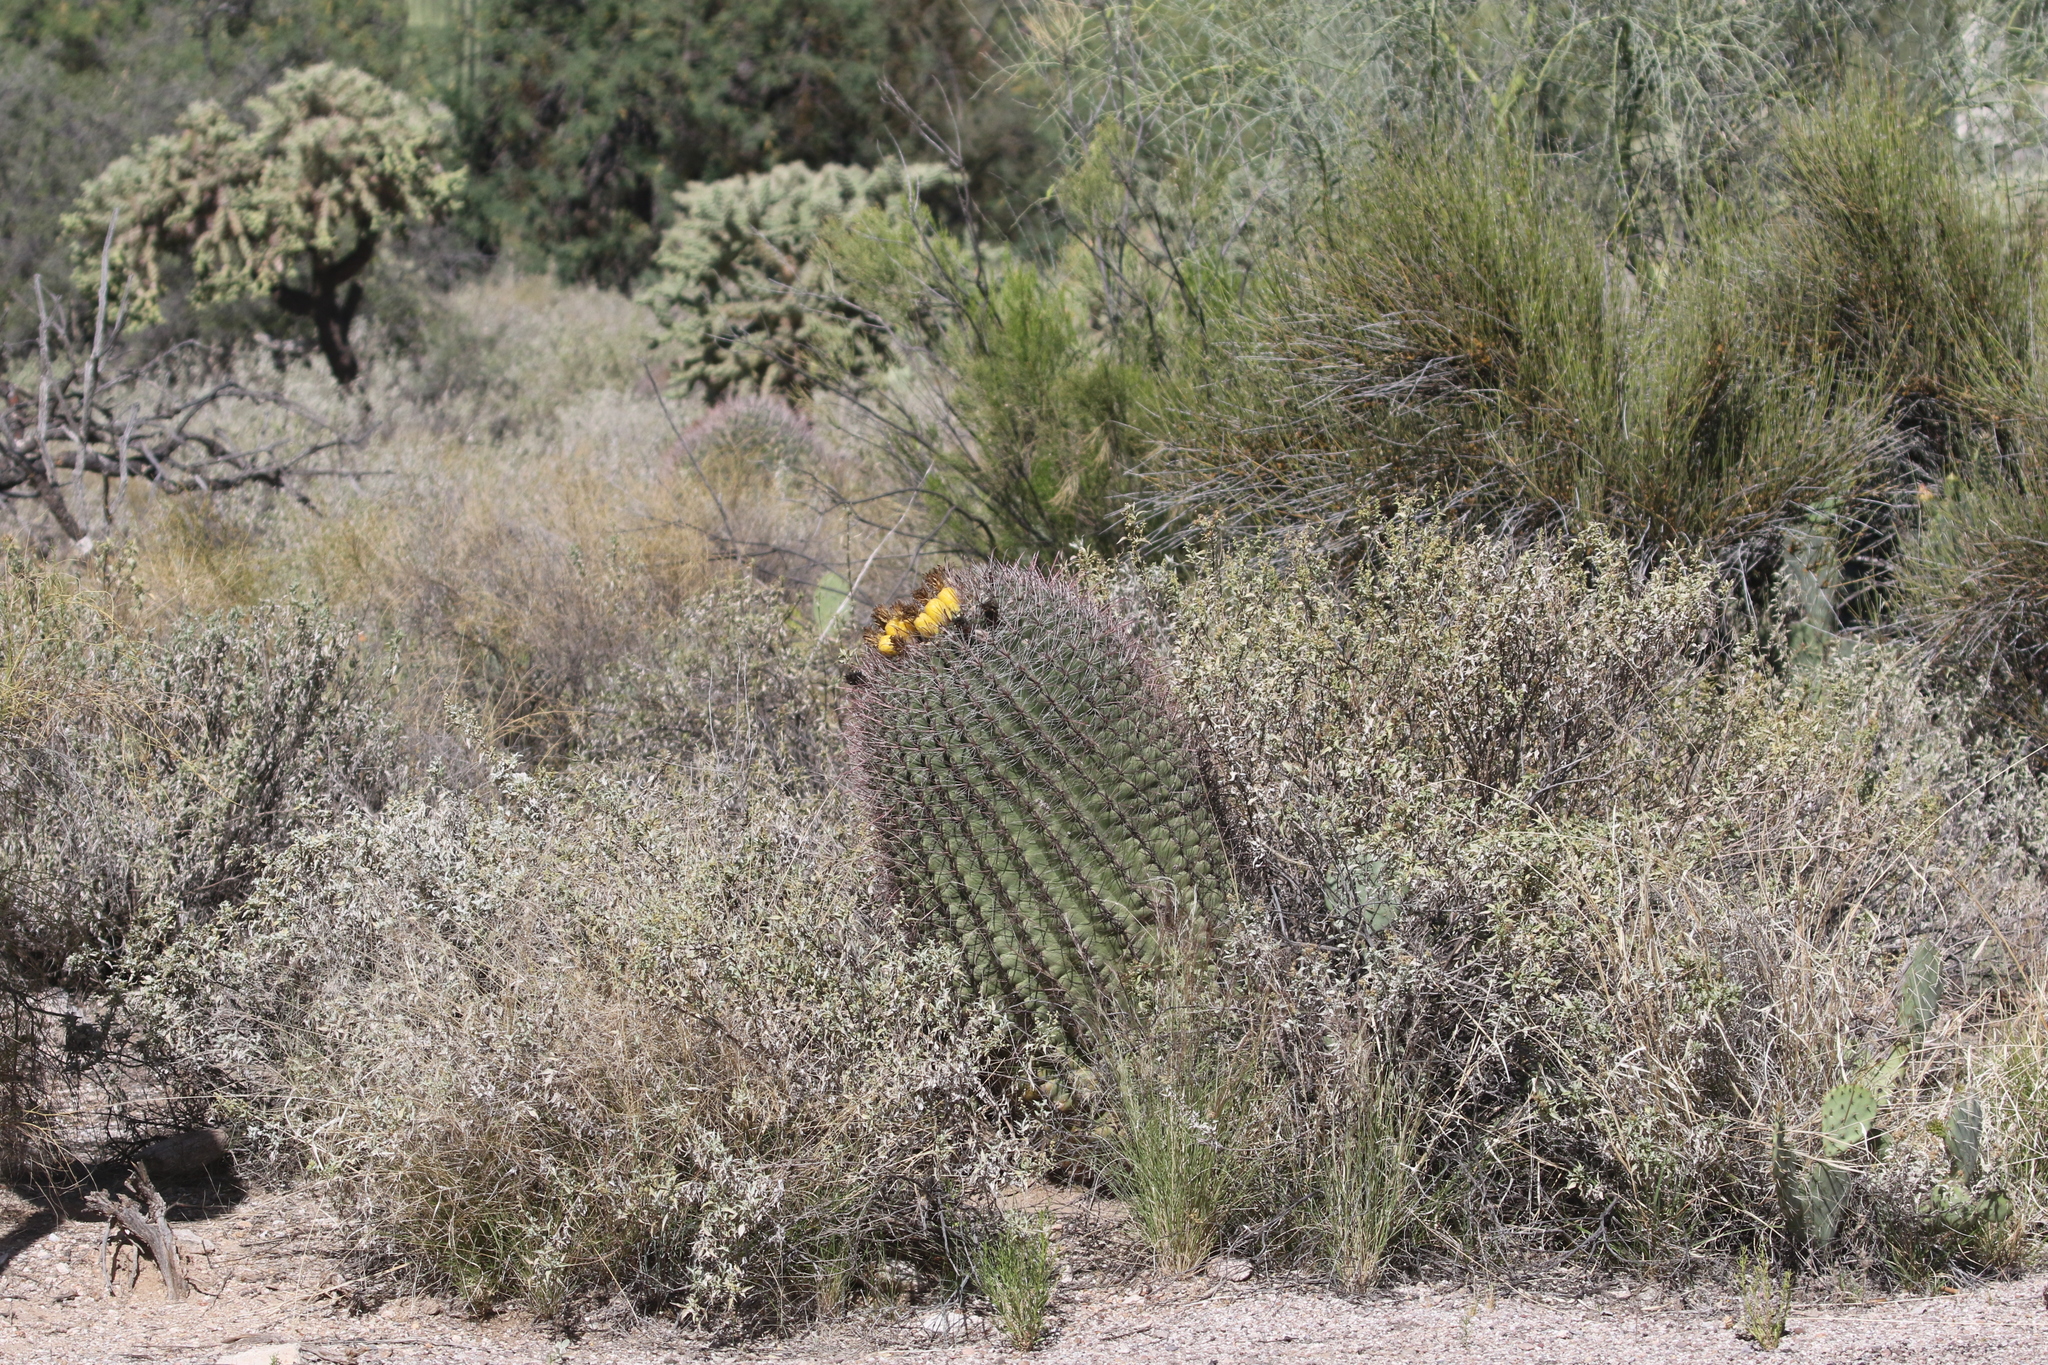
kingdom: Plantae
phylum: Tracheophyta
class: Magnoliopsida
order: Caryophyllales
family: Cactaceae
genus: Ferocactus
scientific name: Ferocactus wislizeni
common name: Candy barrel cactus
